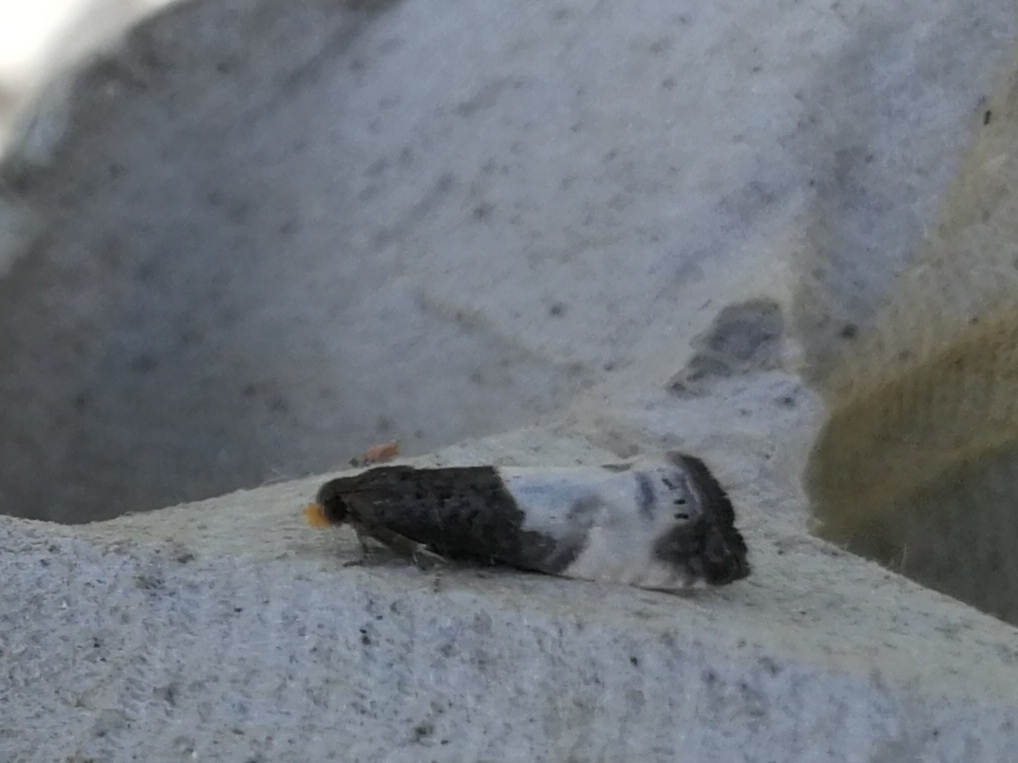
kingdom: Animalia
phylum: Arthropoda
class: Insecta
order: Lepidoptera
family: Tortricidae
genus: Notocelia
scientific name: Notocelia cynosbatella
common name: Yellow-faced bell moth
